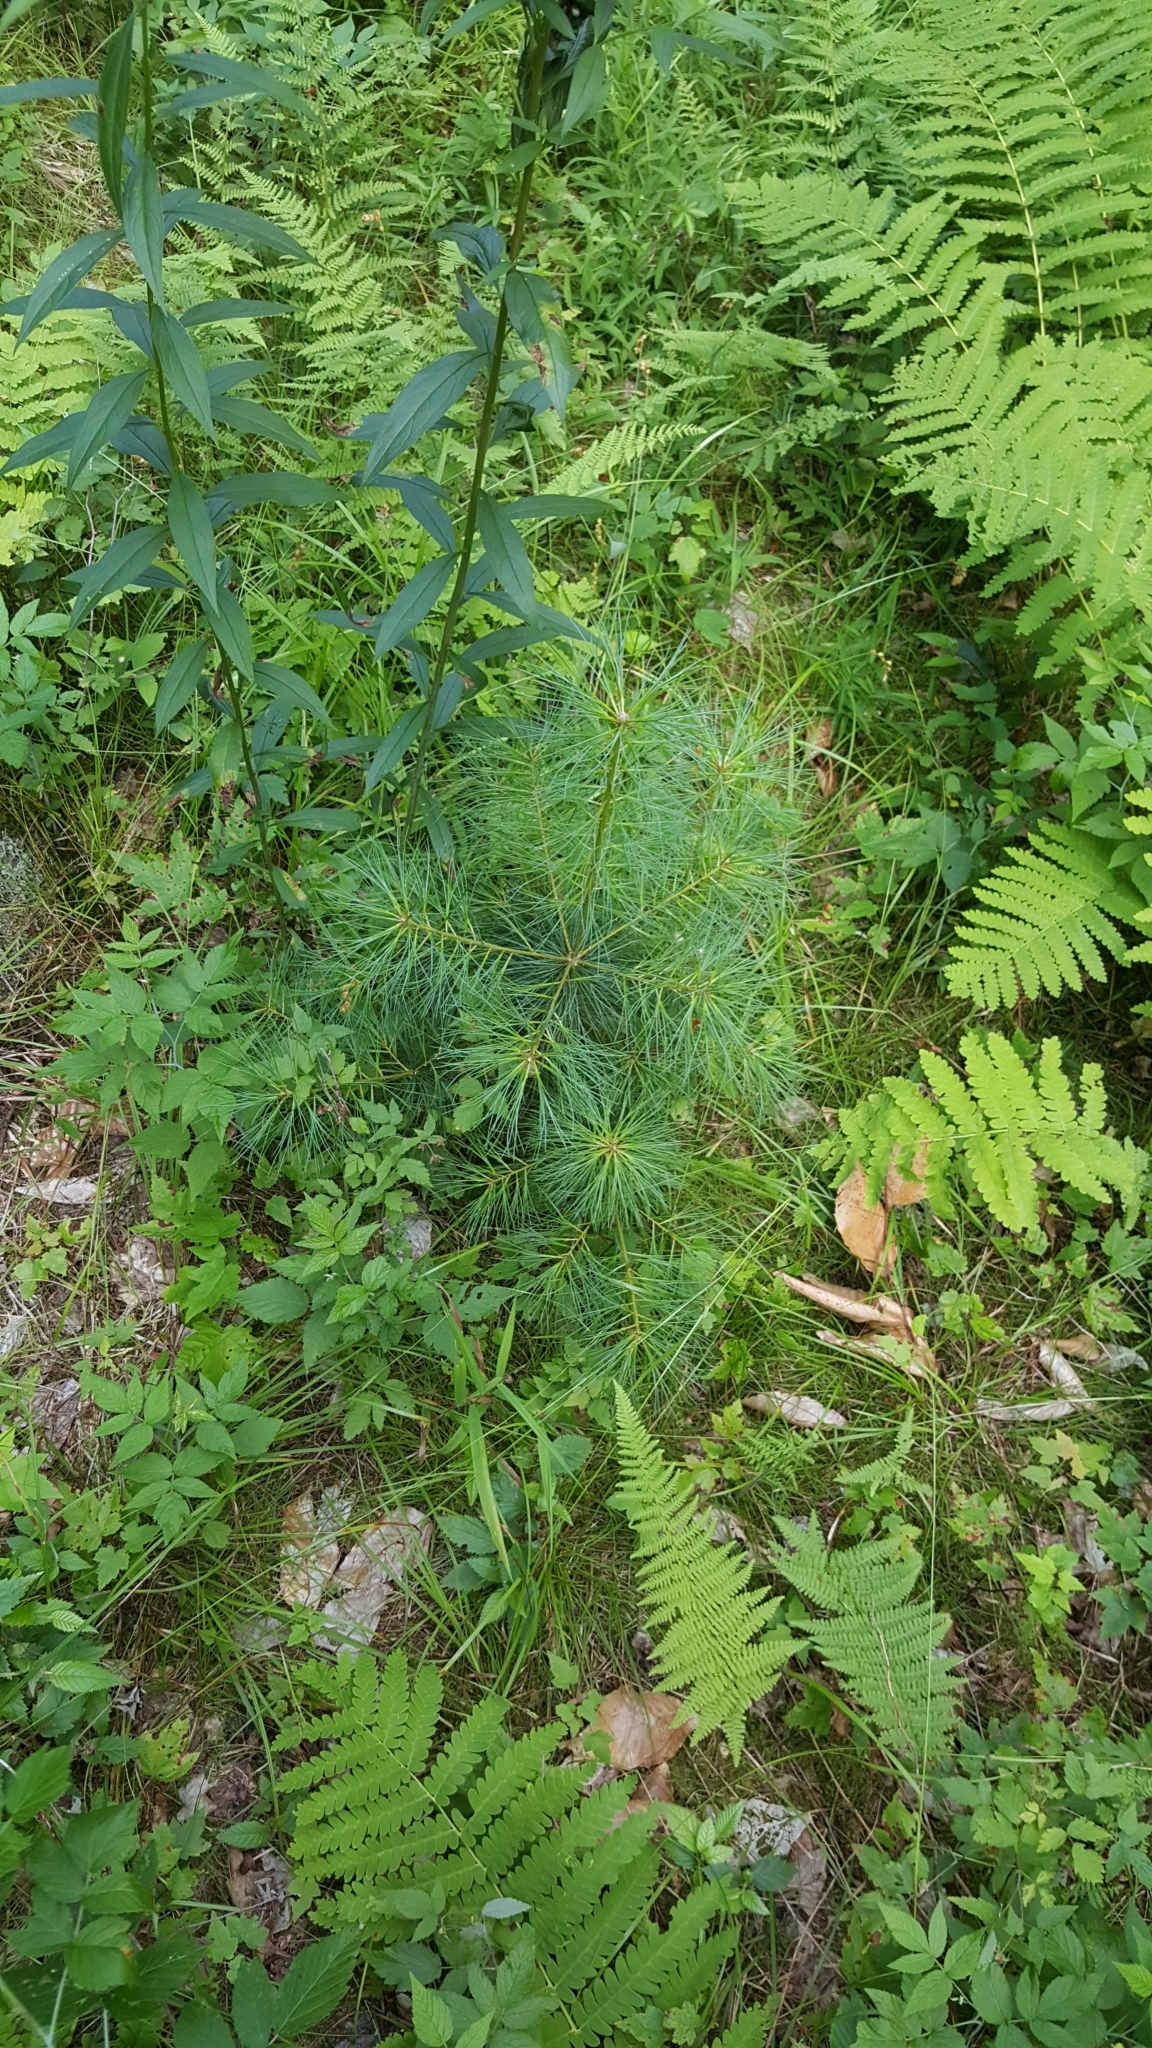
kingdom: Plantae
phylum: Tracheophyta
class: Pinopsida
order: Pinales
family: Pinaceae
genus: Pinus
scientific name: Pinus strobus
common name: Weymouth pine
